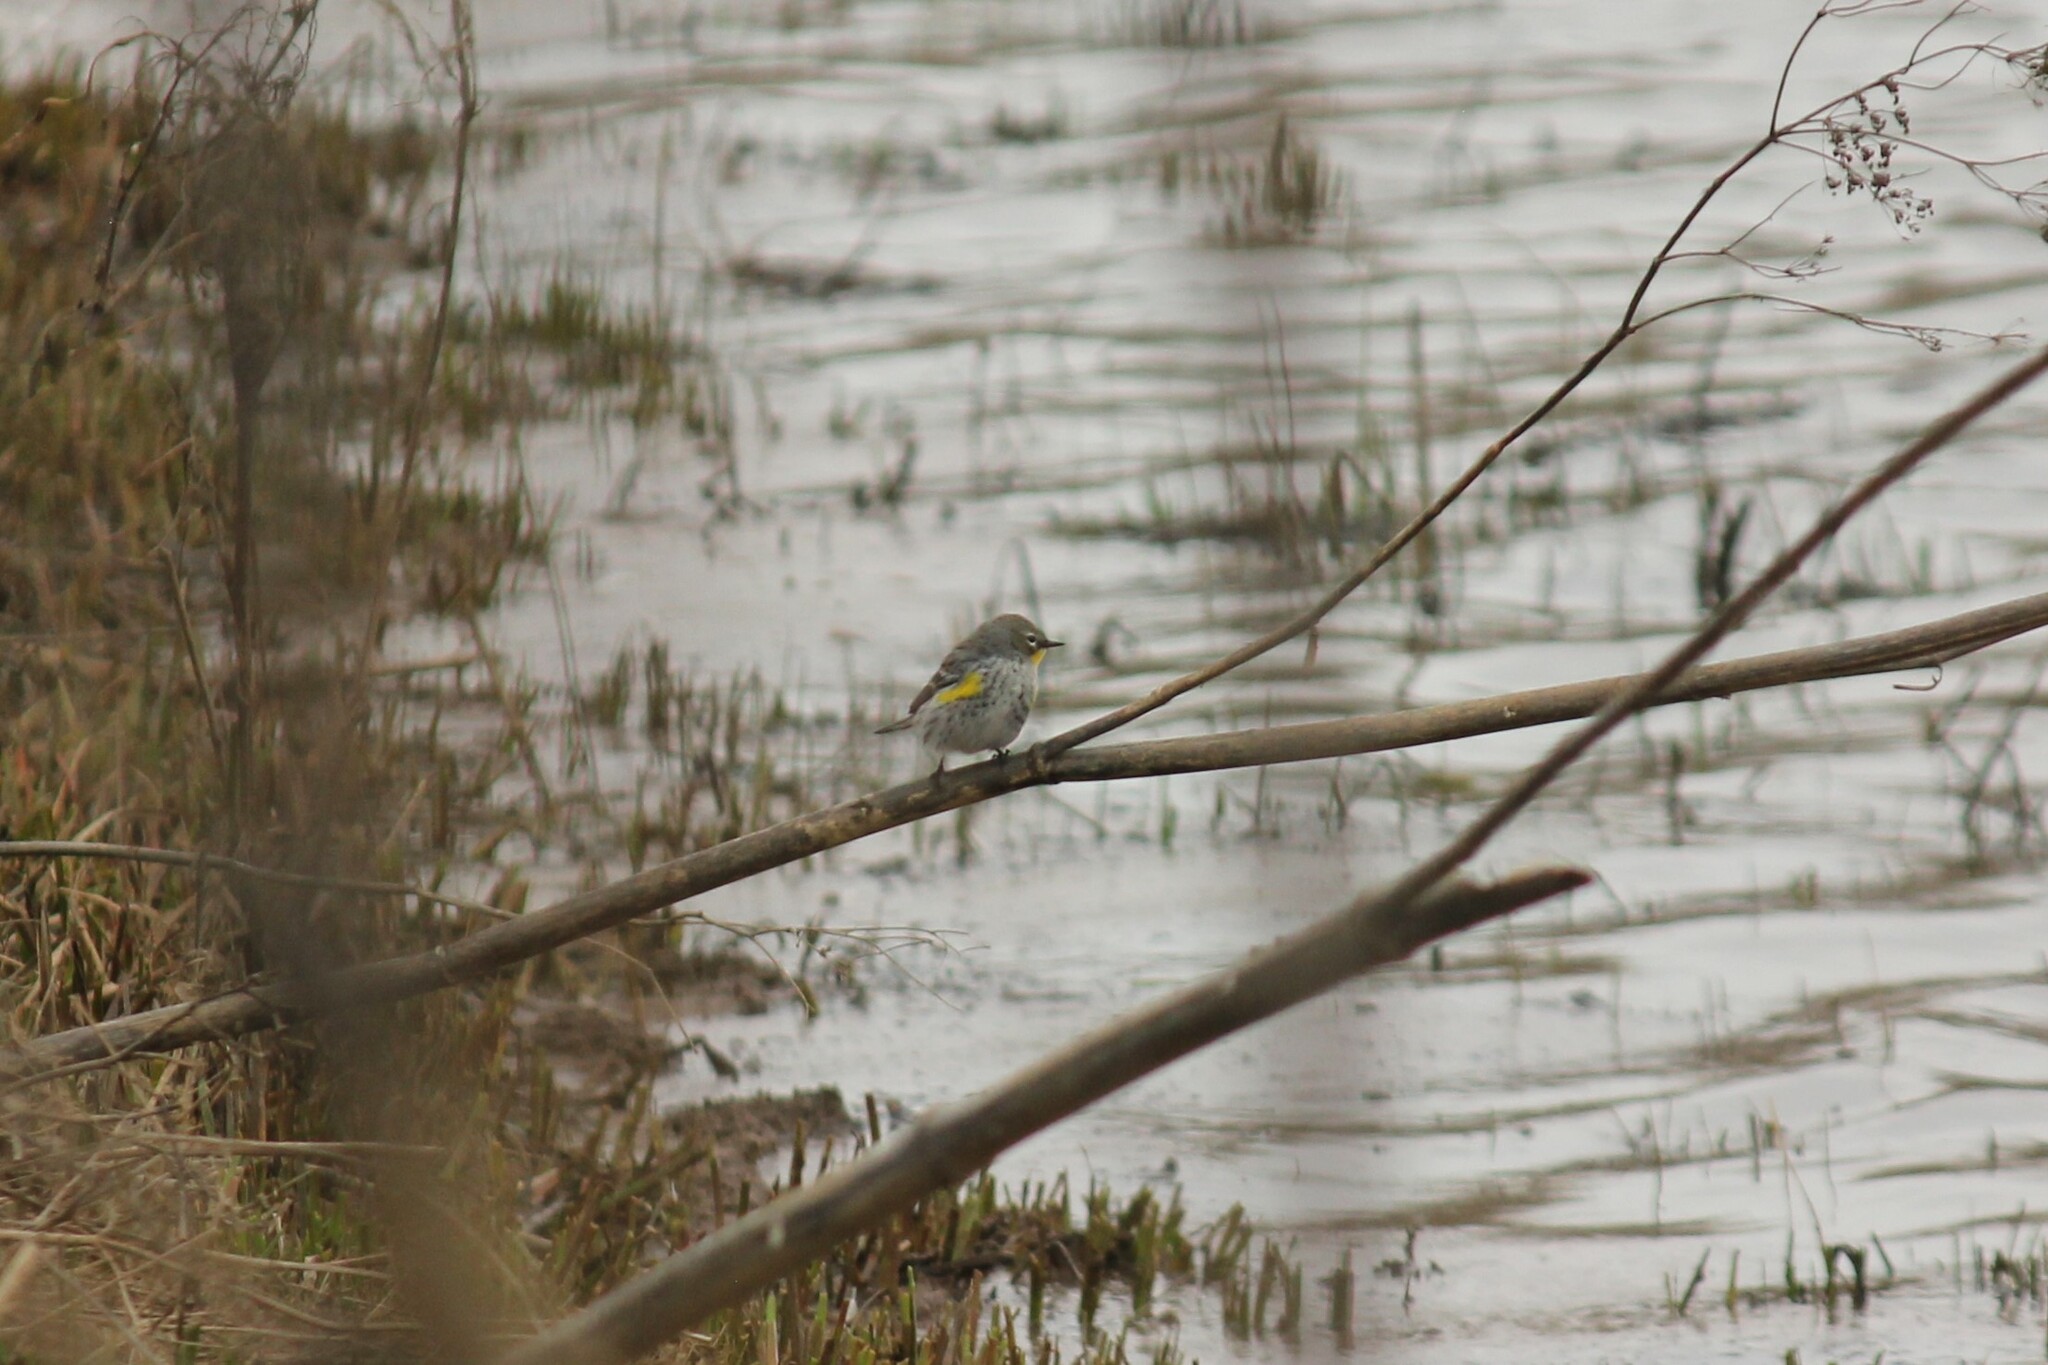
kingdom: Animalia
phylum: Chordata
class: Aves
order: Passeriformes
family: Parulidae
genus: Setophaga
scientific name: Setophaga coronata
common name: Myrtle warbler
